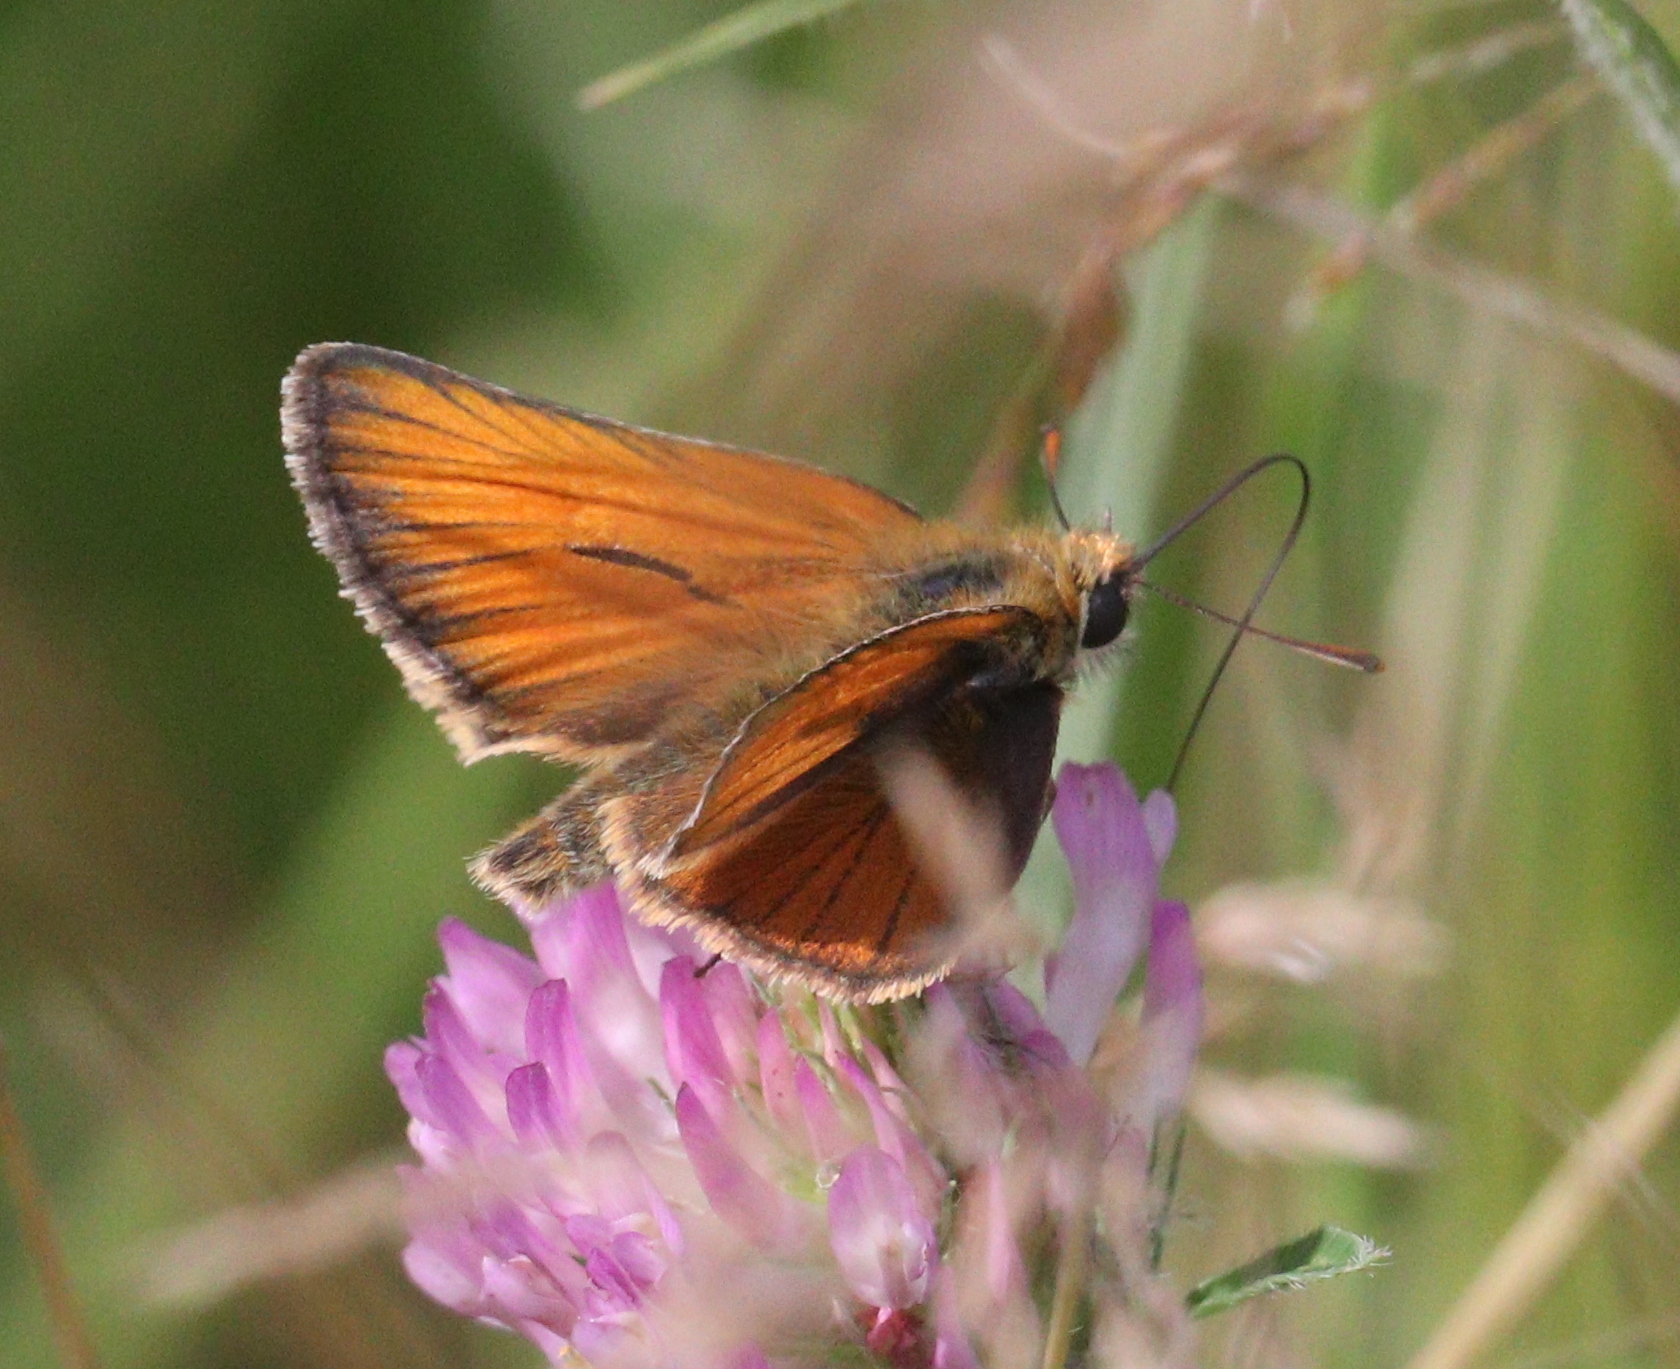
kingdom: Animalia
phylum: Arthropoda
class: Insecta
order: Lepidoptera
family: Hesperiidae
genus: Thymelicus
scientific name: Thymelicus sylvestris
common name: Small skipper
